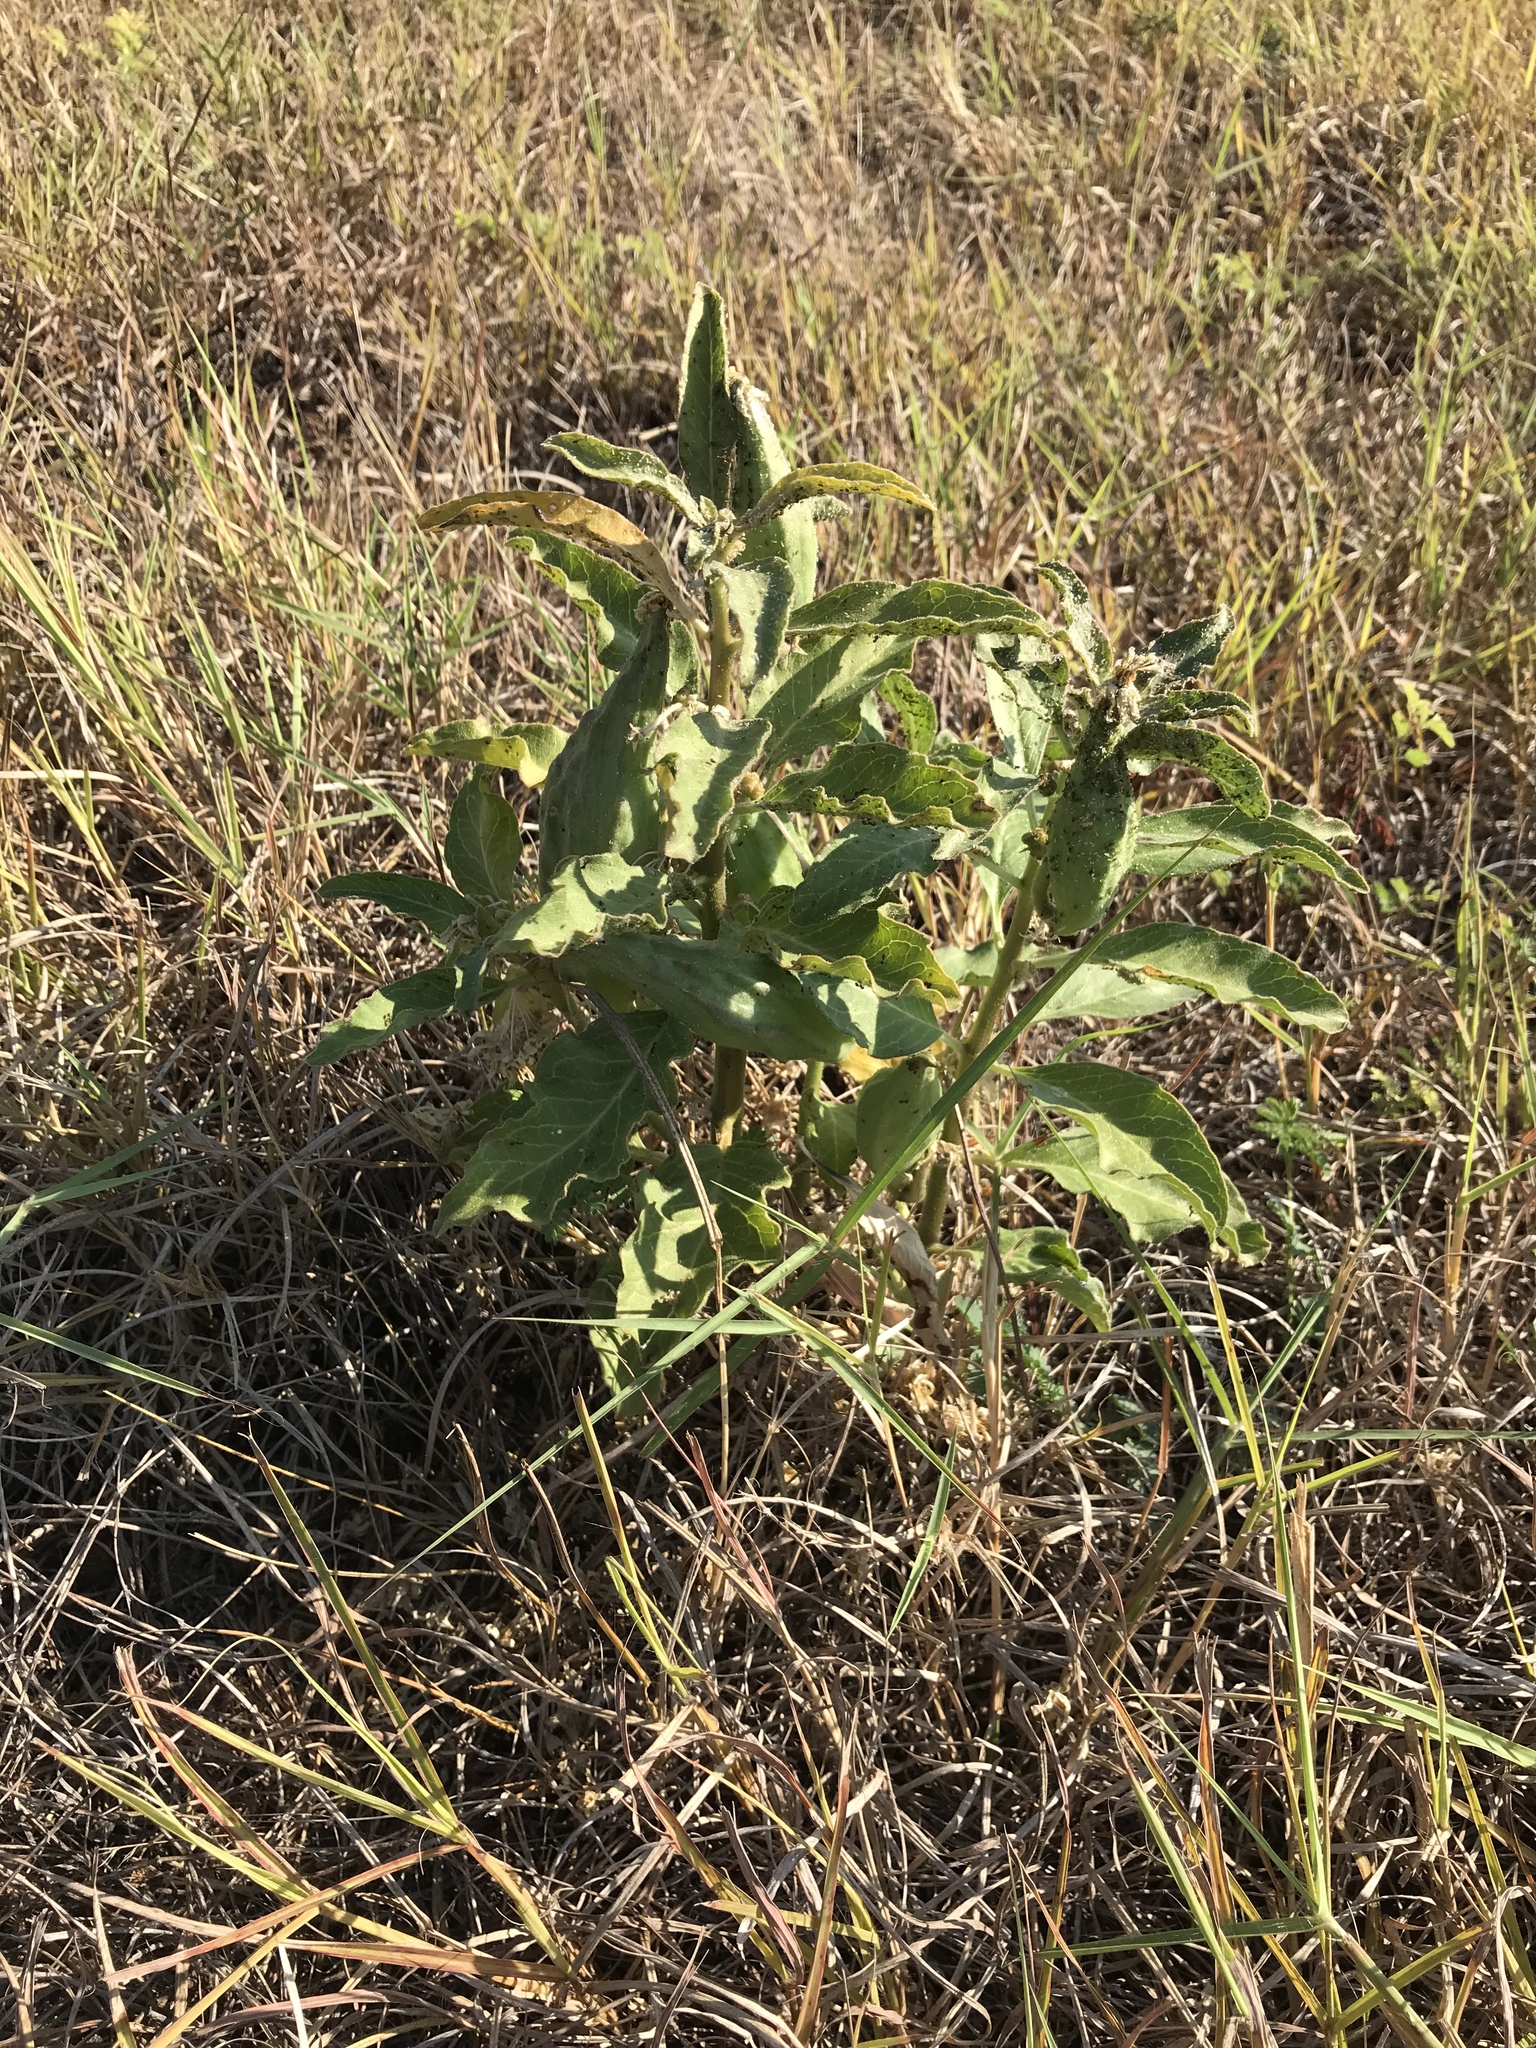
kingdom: Plantae
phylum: Tracheophyta
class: Magnoliopsida
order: Gentianales
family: Apocynaceae
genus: Asclepias
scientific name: Asclepias oenotheroides
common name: Zizotes milkweed
